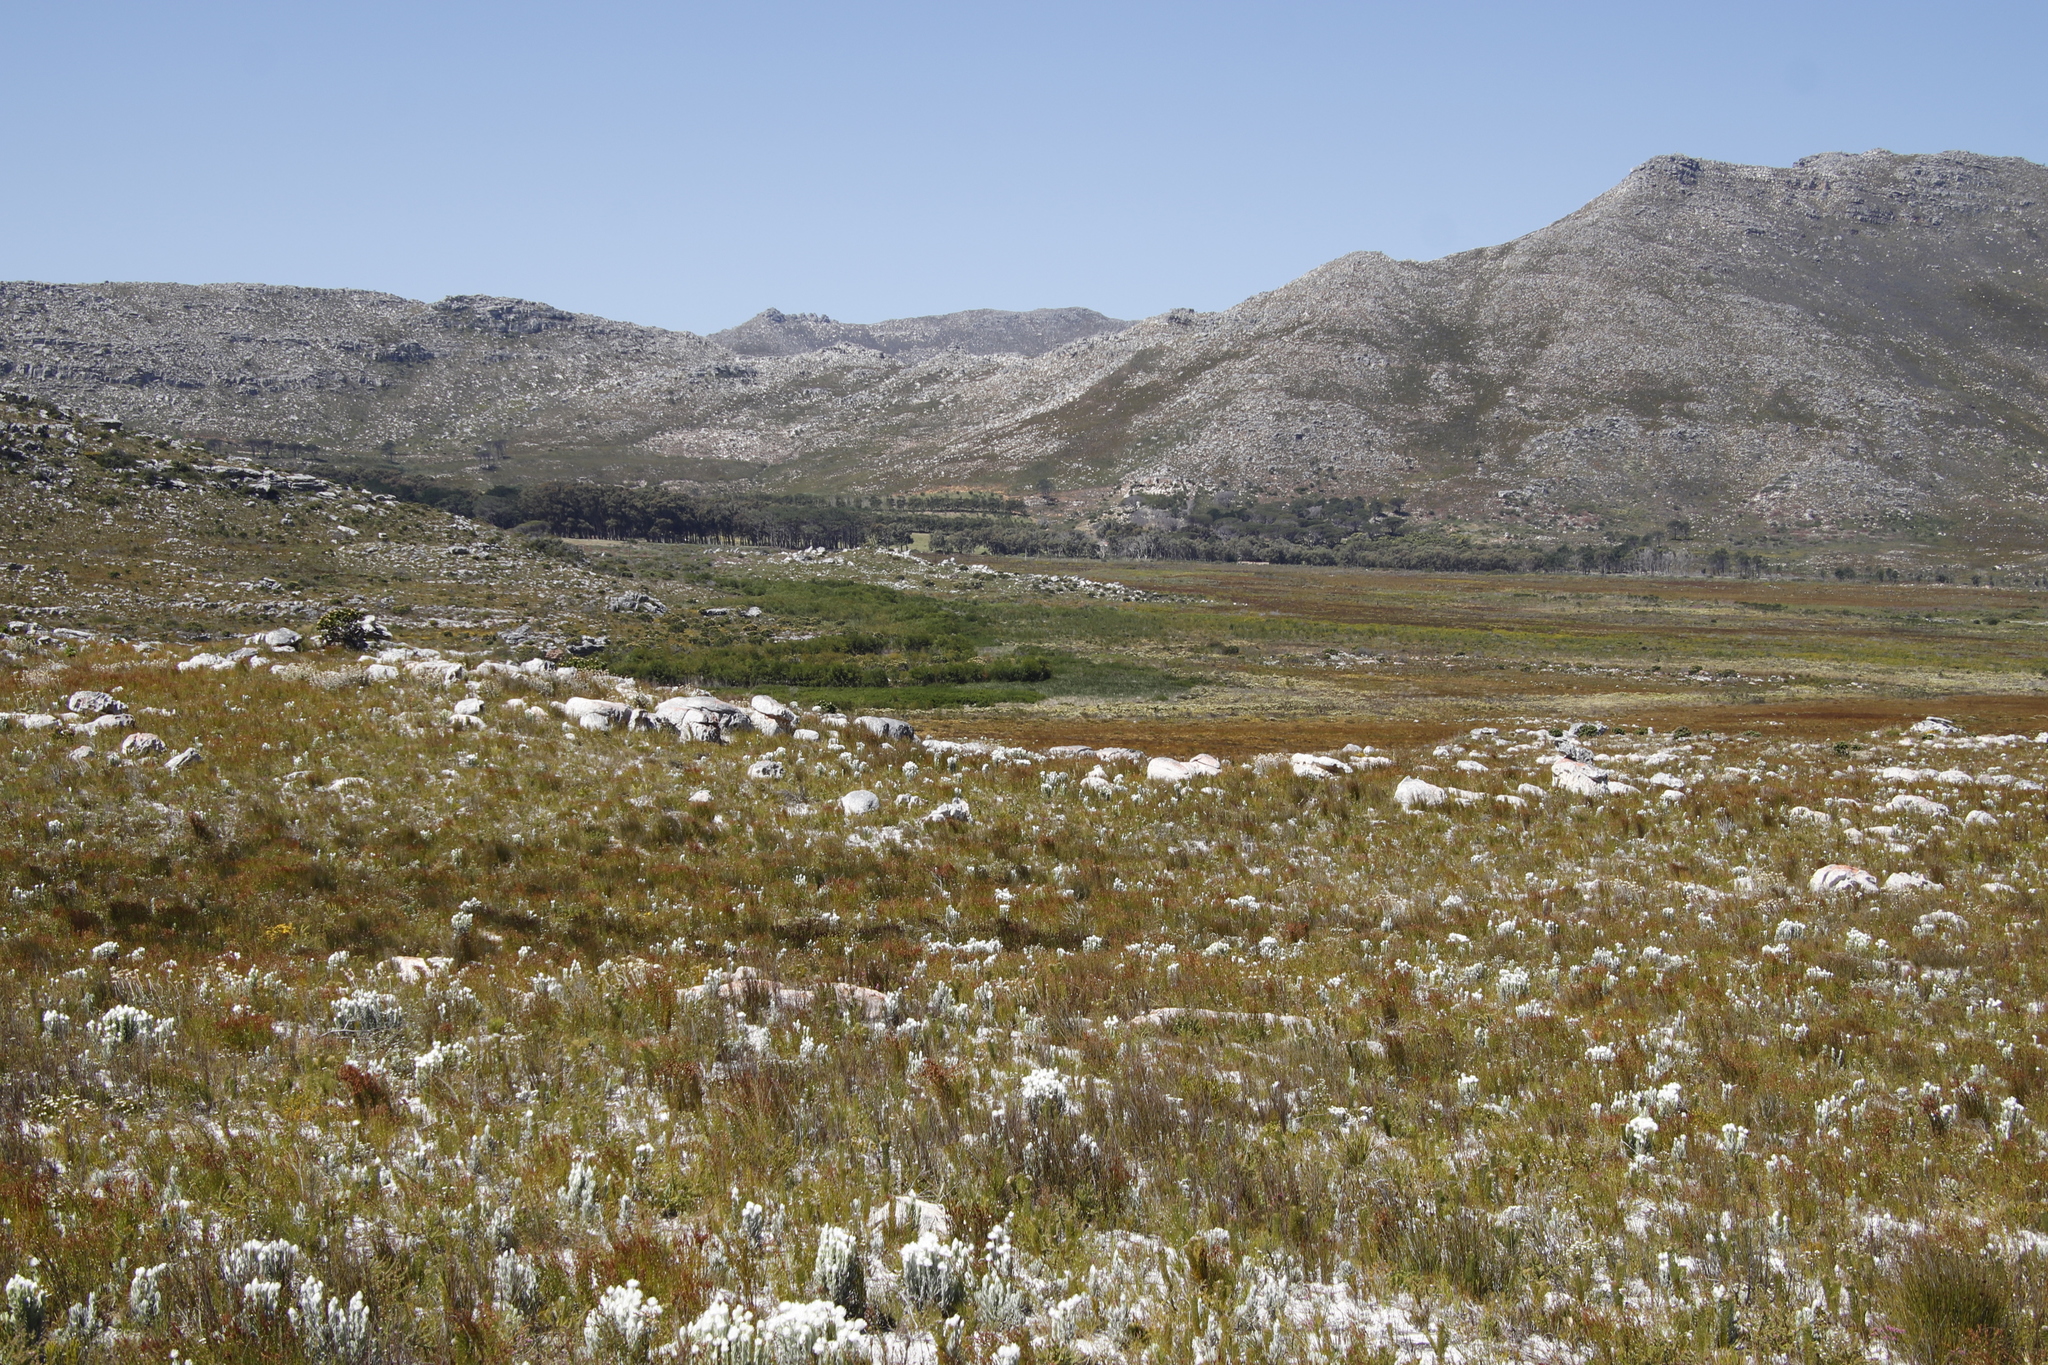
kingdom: Plantae
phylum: Tracheophyta
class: Magnoliopsida
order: Malvales
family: Thymelaeaceae
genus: Lachnaea
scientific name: Lachnaea grandiflora
